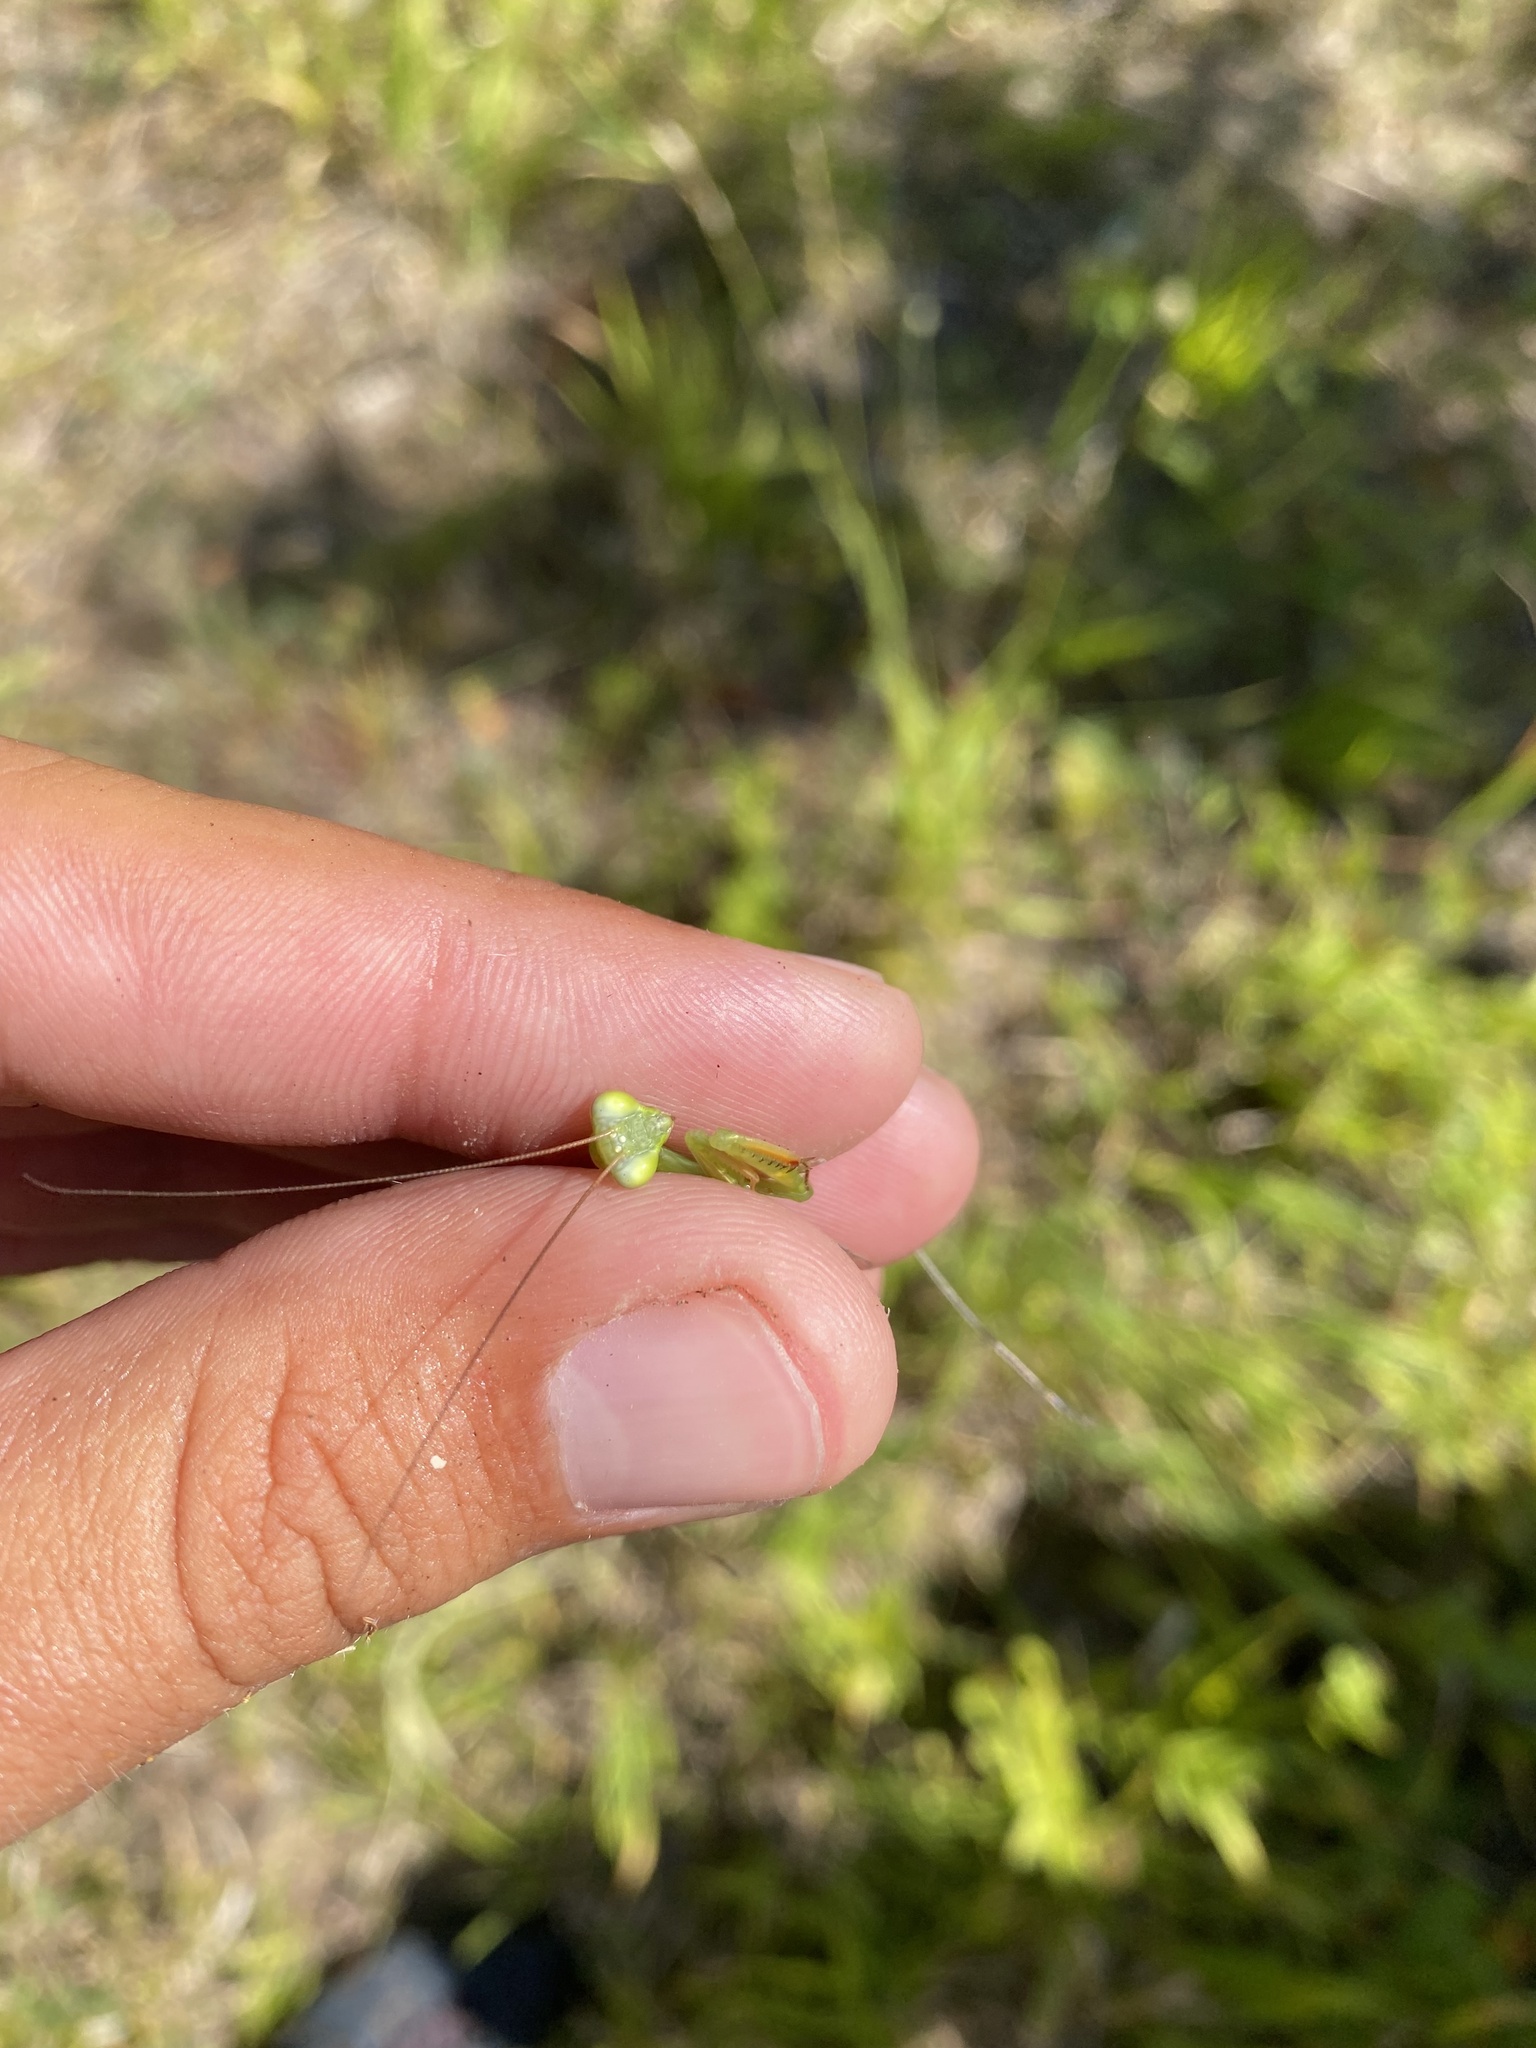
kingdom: Animalia
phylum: Arthropoda
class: Insecta
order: Mantodea
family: Mantidae
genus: Mantis
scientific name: Mantis religiosa
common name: Praying mantis
